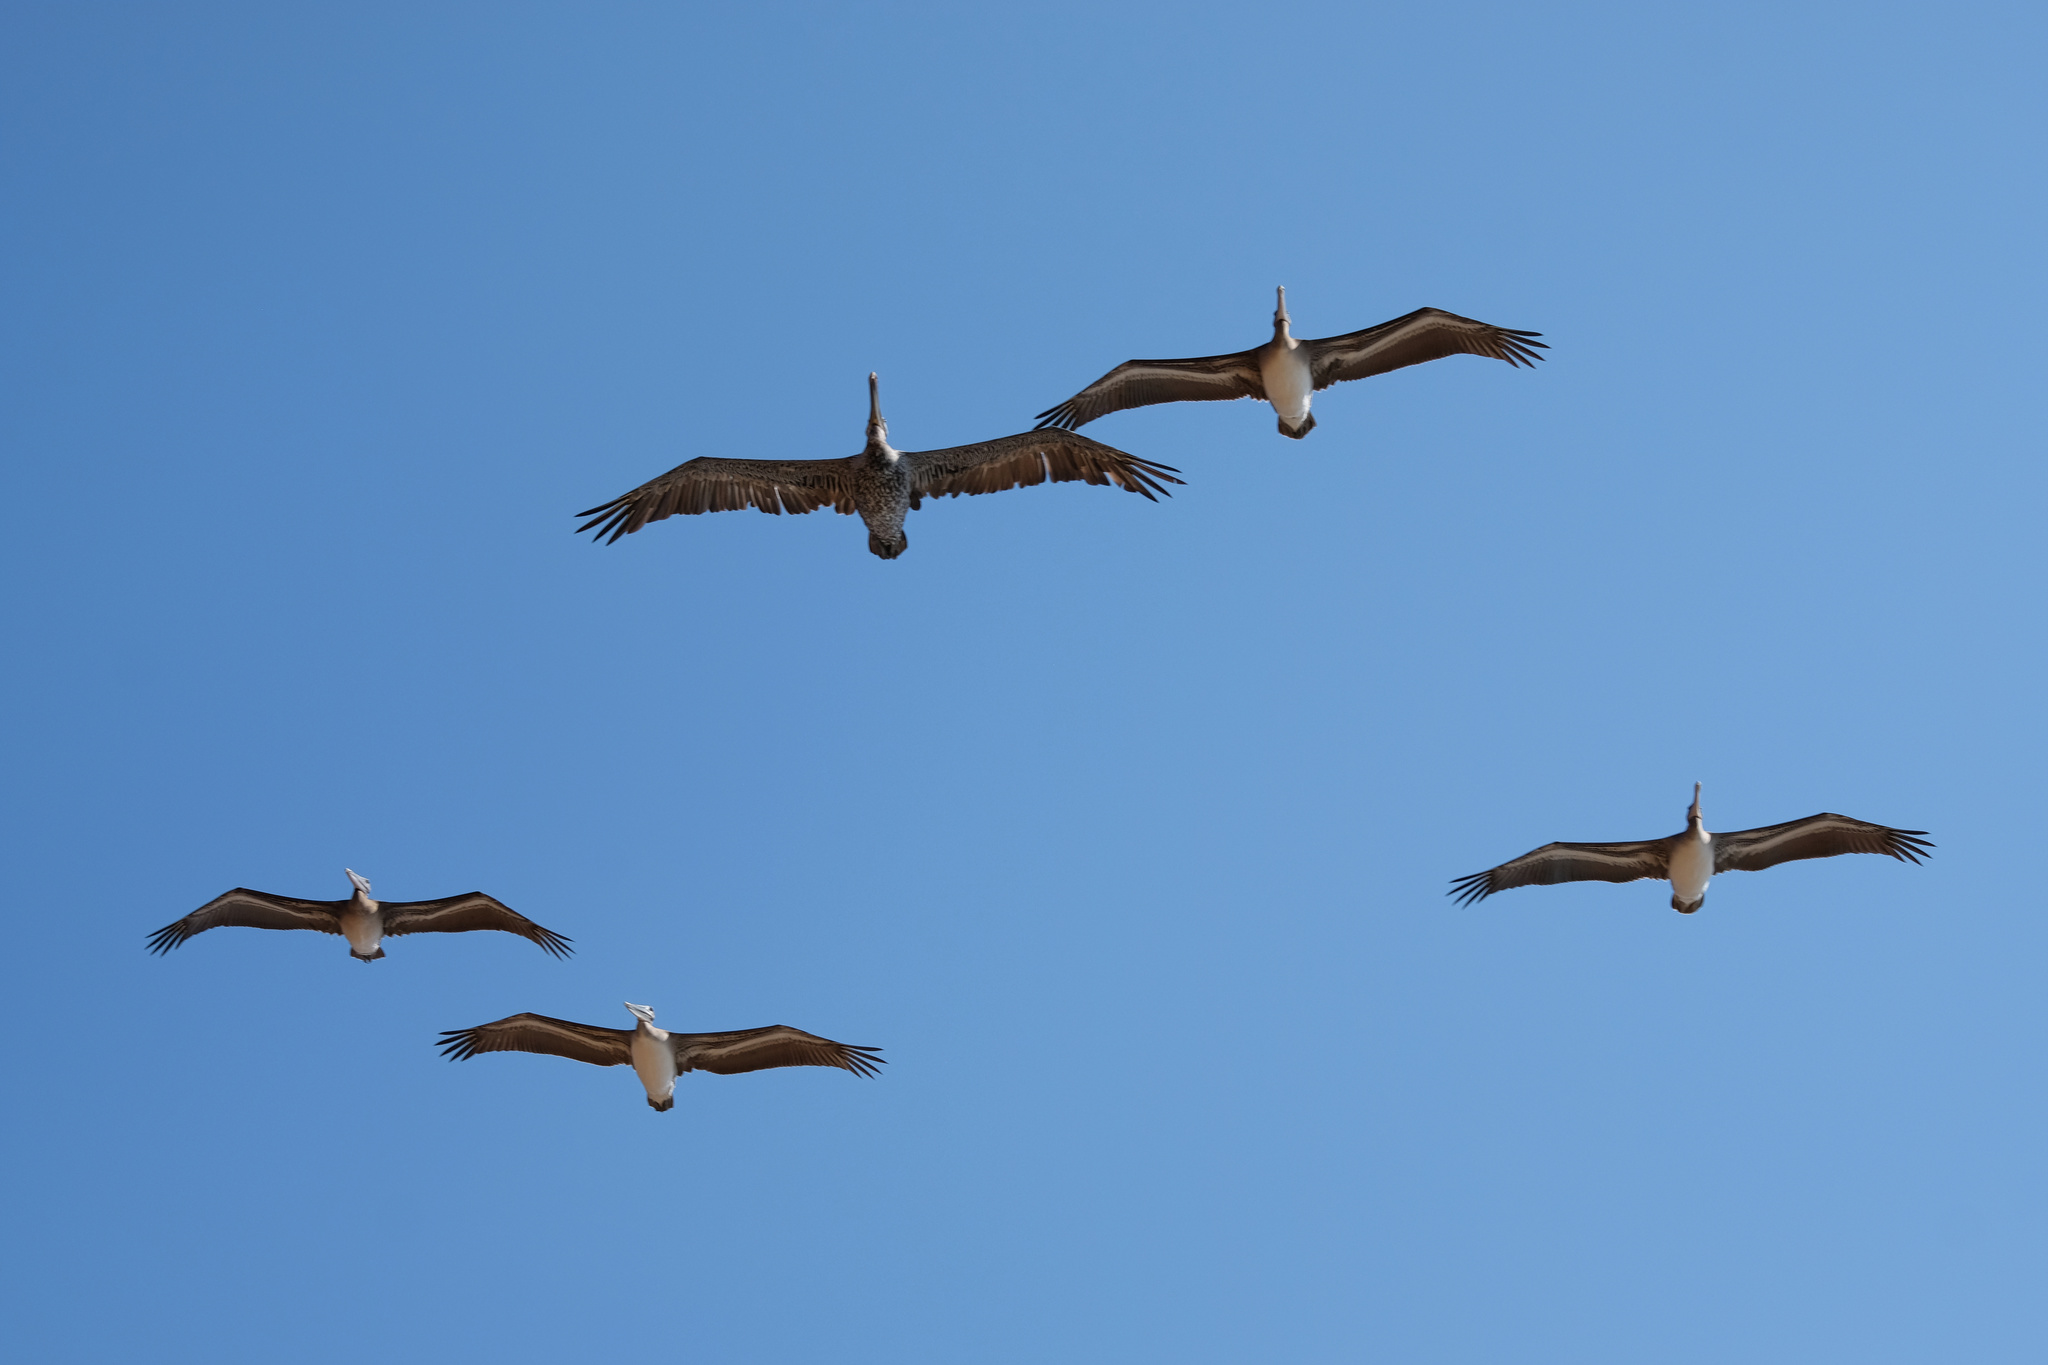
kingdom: Animalia
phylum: Chordata
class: Aves
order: Pelecaniformes
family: Pelecanidae
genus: Pelecanus
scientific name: Pelecanus occidentalis
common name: Brown pelican
